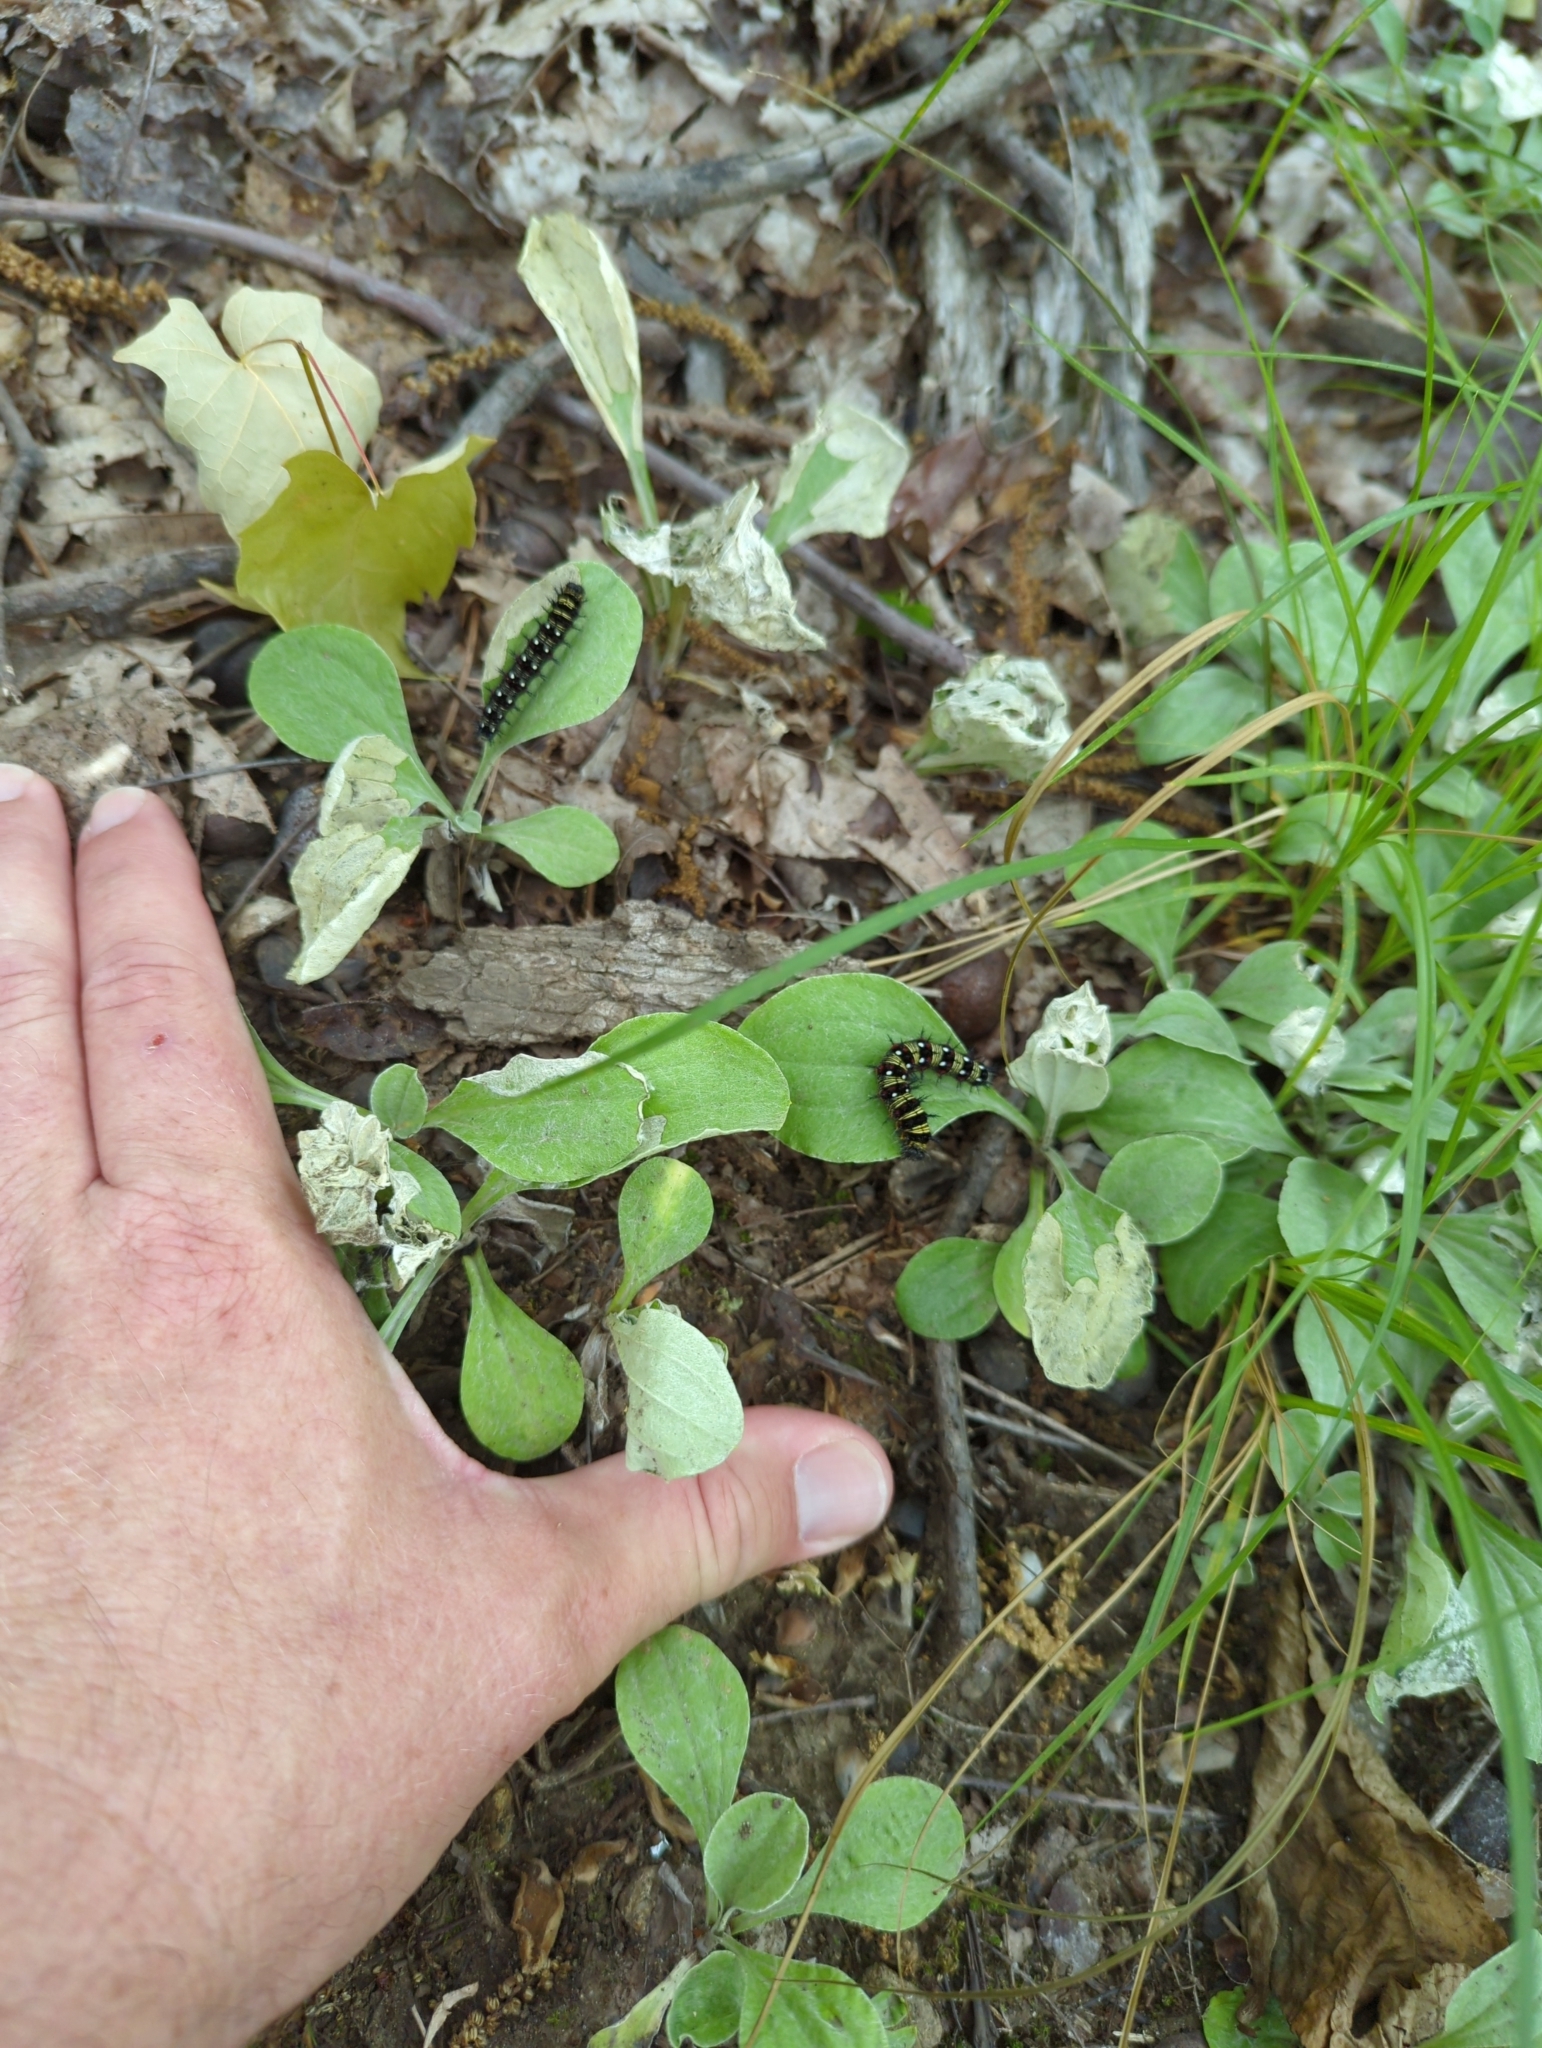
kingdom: Animalia
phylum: Arthropoda
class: Insecta
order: Lepidoptera
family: Nymphalidae
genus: Vanessa
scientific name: Vanessa virginiensis
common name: American lady
